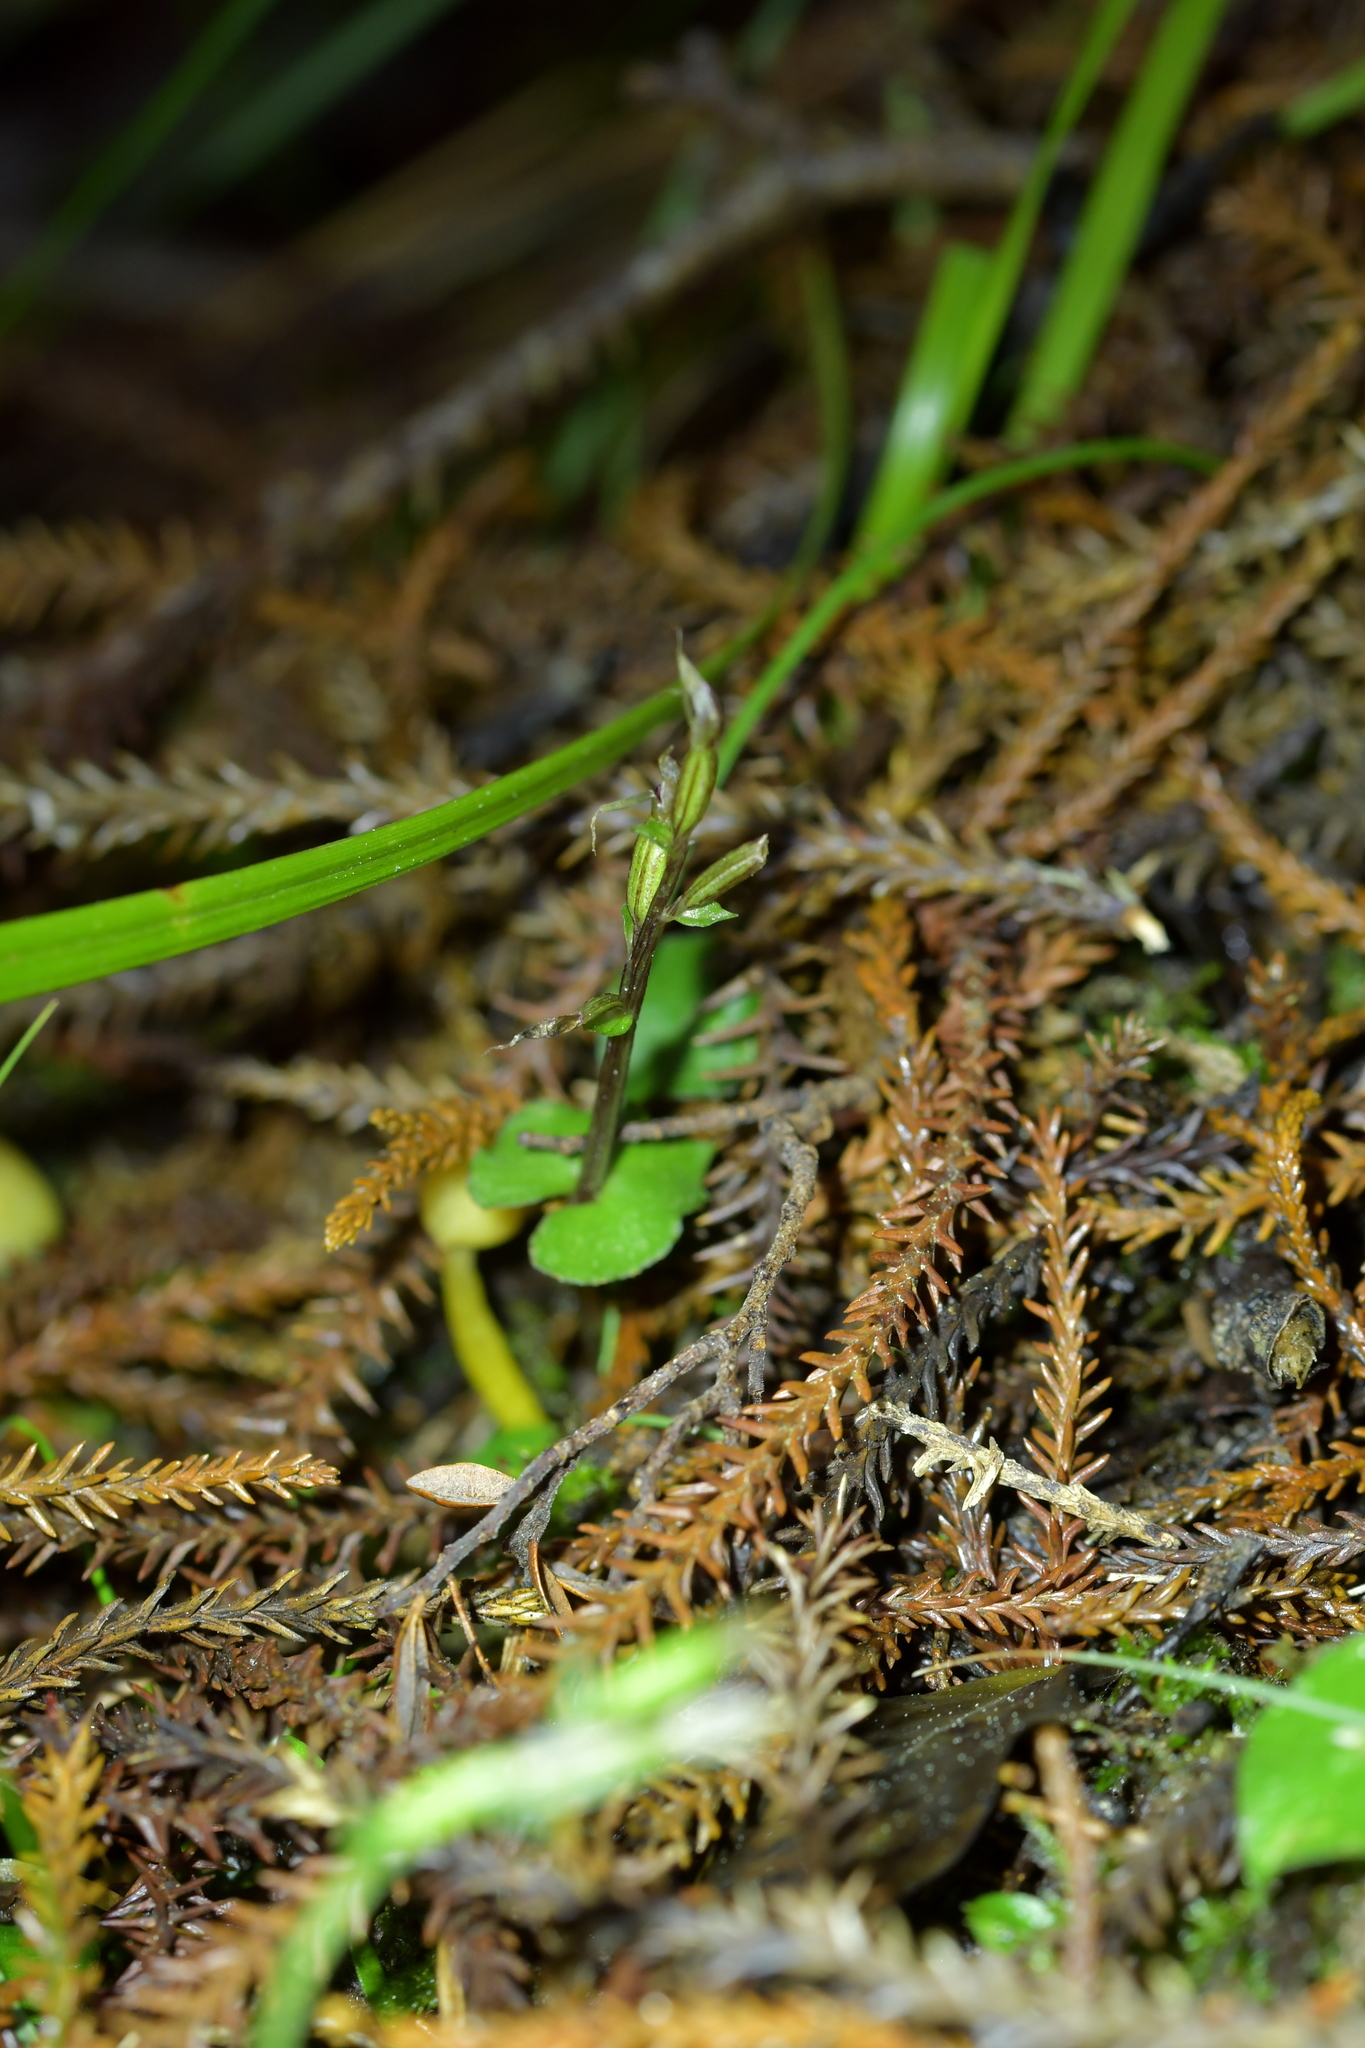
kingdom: Plantae
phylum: Tracheophyta
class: Liliopsida
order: Asparagales
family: Orchidaceae
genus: Acianthus
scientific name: Acianthus sinclairii
